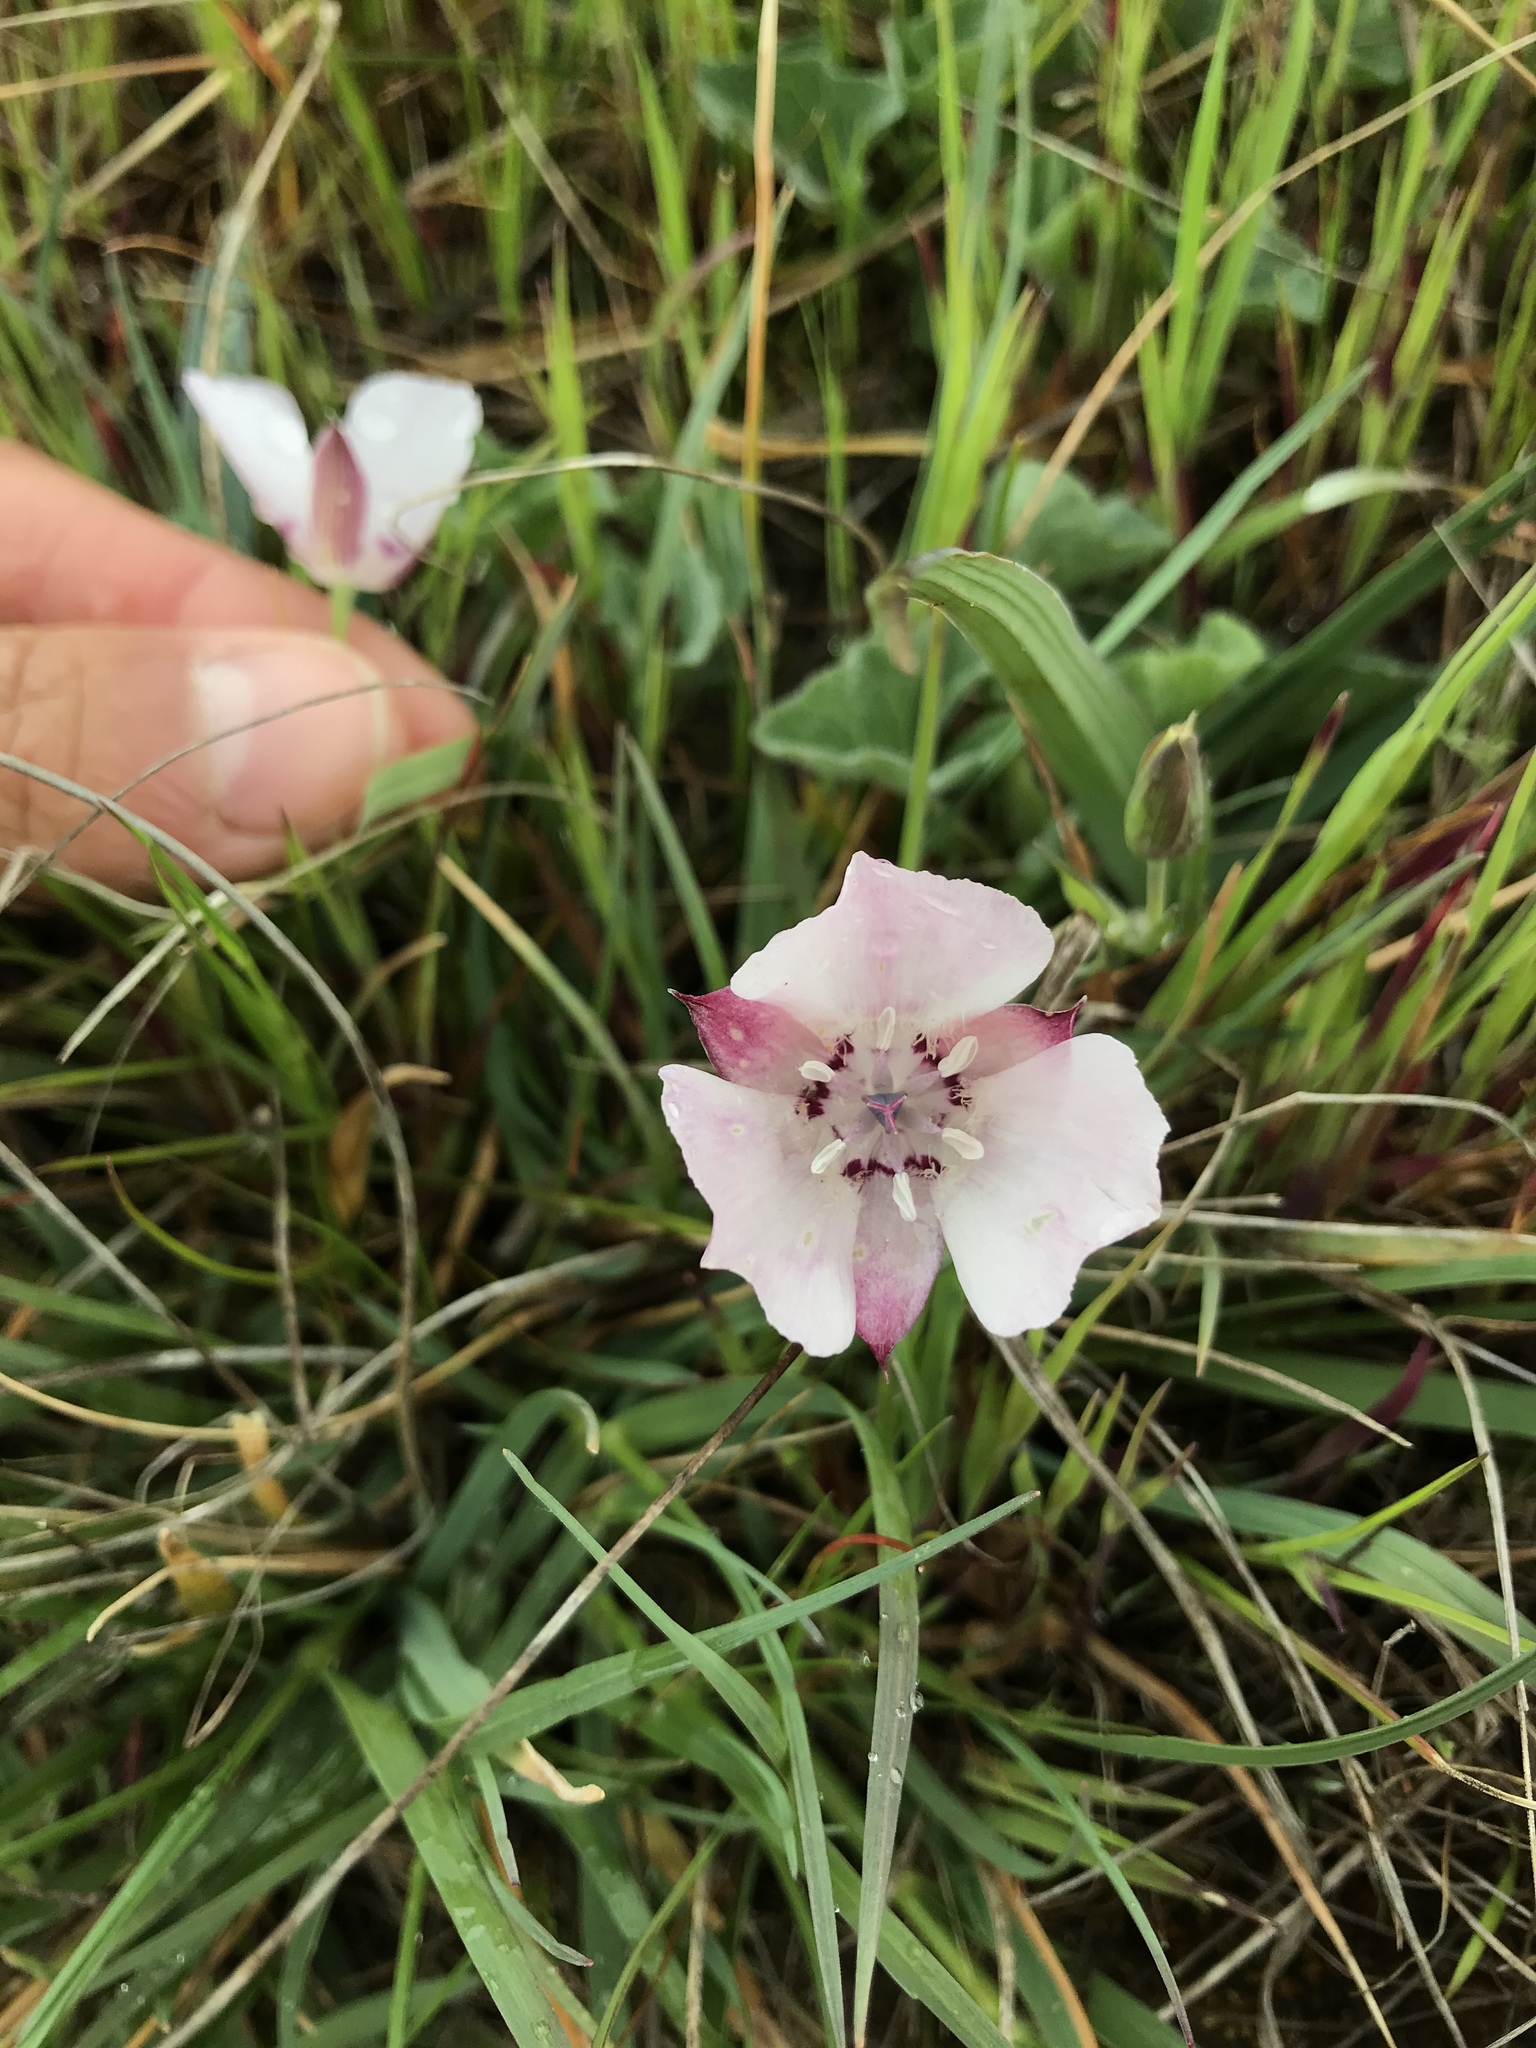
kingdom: Plantae
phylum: Tracheophyta
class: Liliopsida
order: Liliales
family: Liliaceae
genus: Calochortus
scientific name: Calochortus umbellatus
